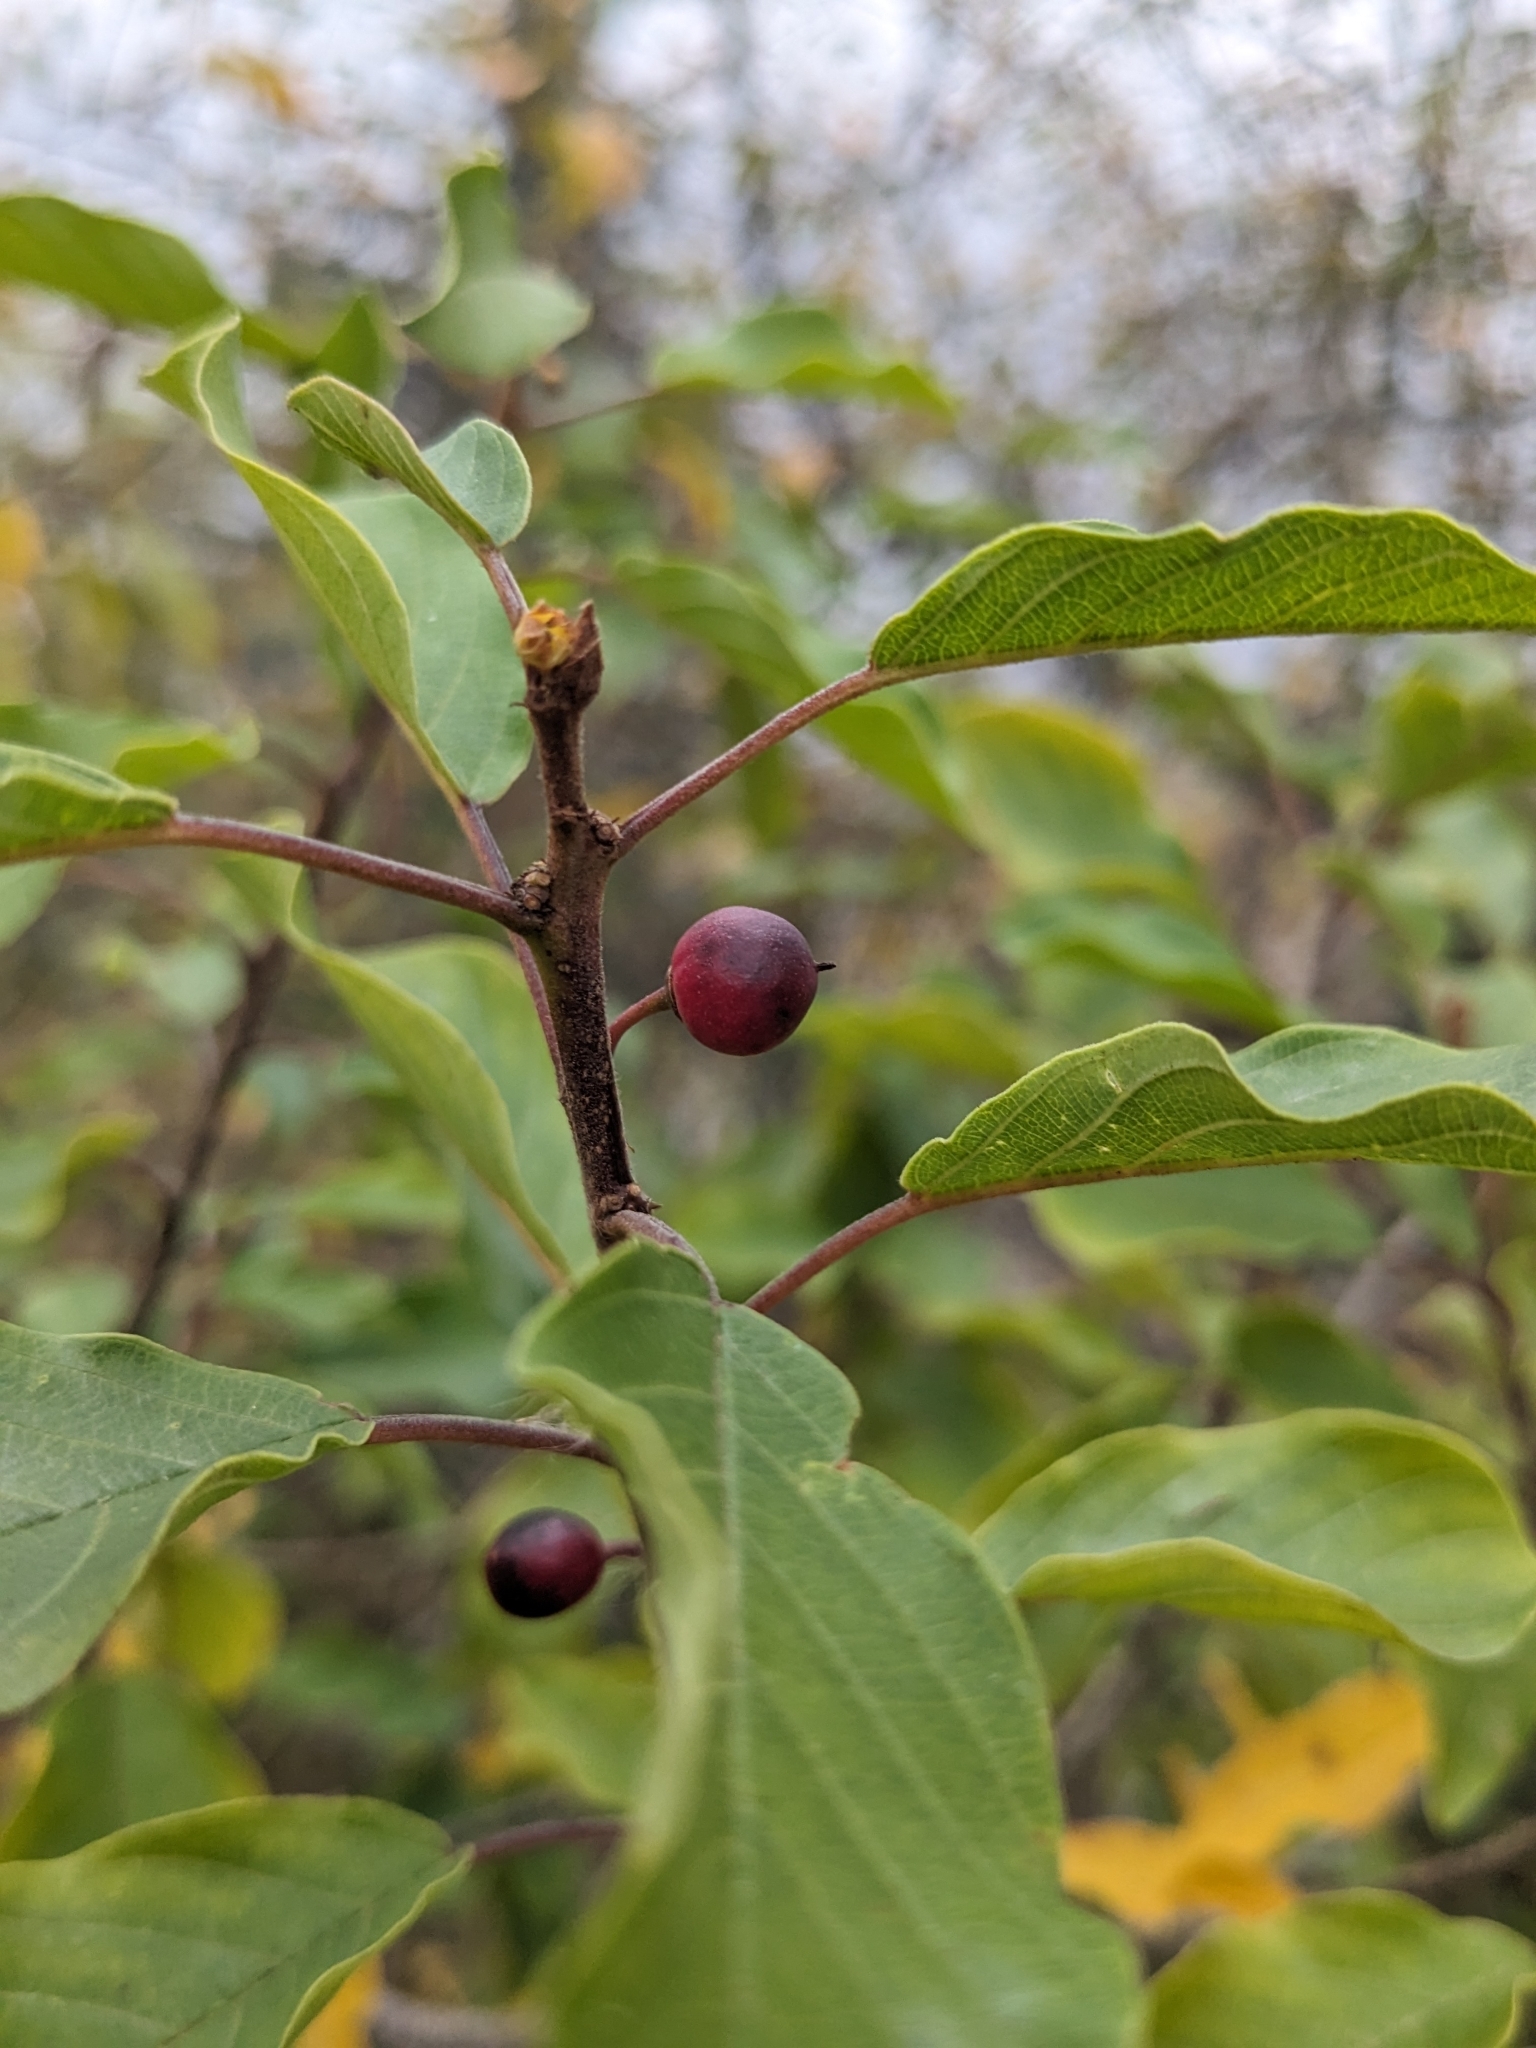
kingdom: Plantae
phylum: Tracheophyta
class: Magnoliopsida
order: Rosales
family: Rhamnaceae
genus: Frangula
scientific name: Frangula alnus
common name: Alder buckthorn
